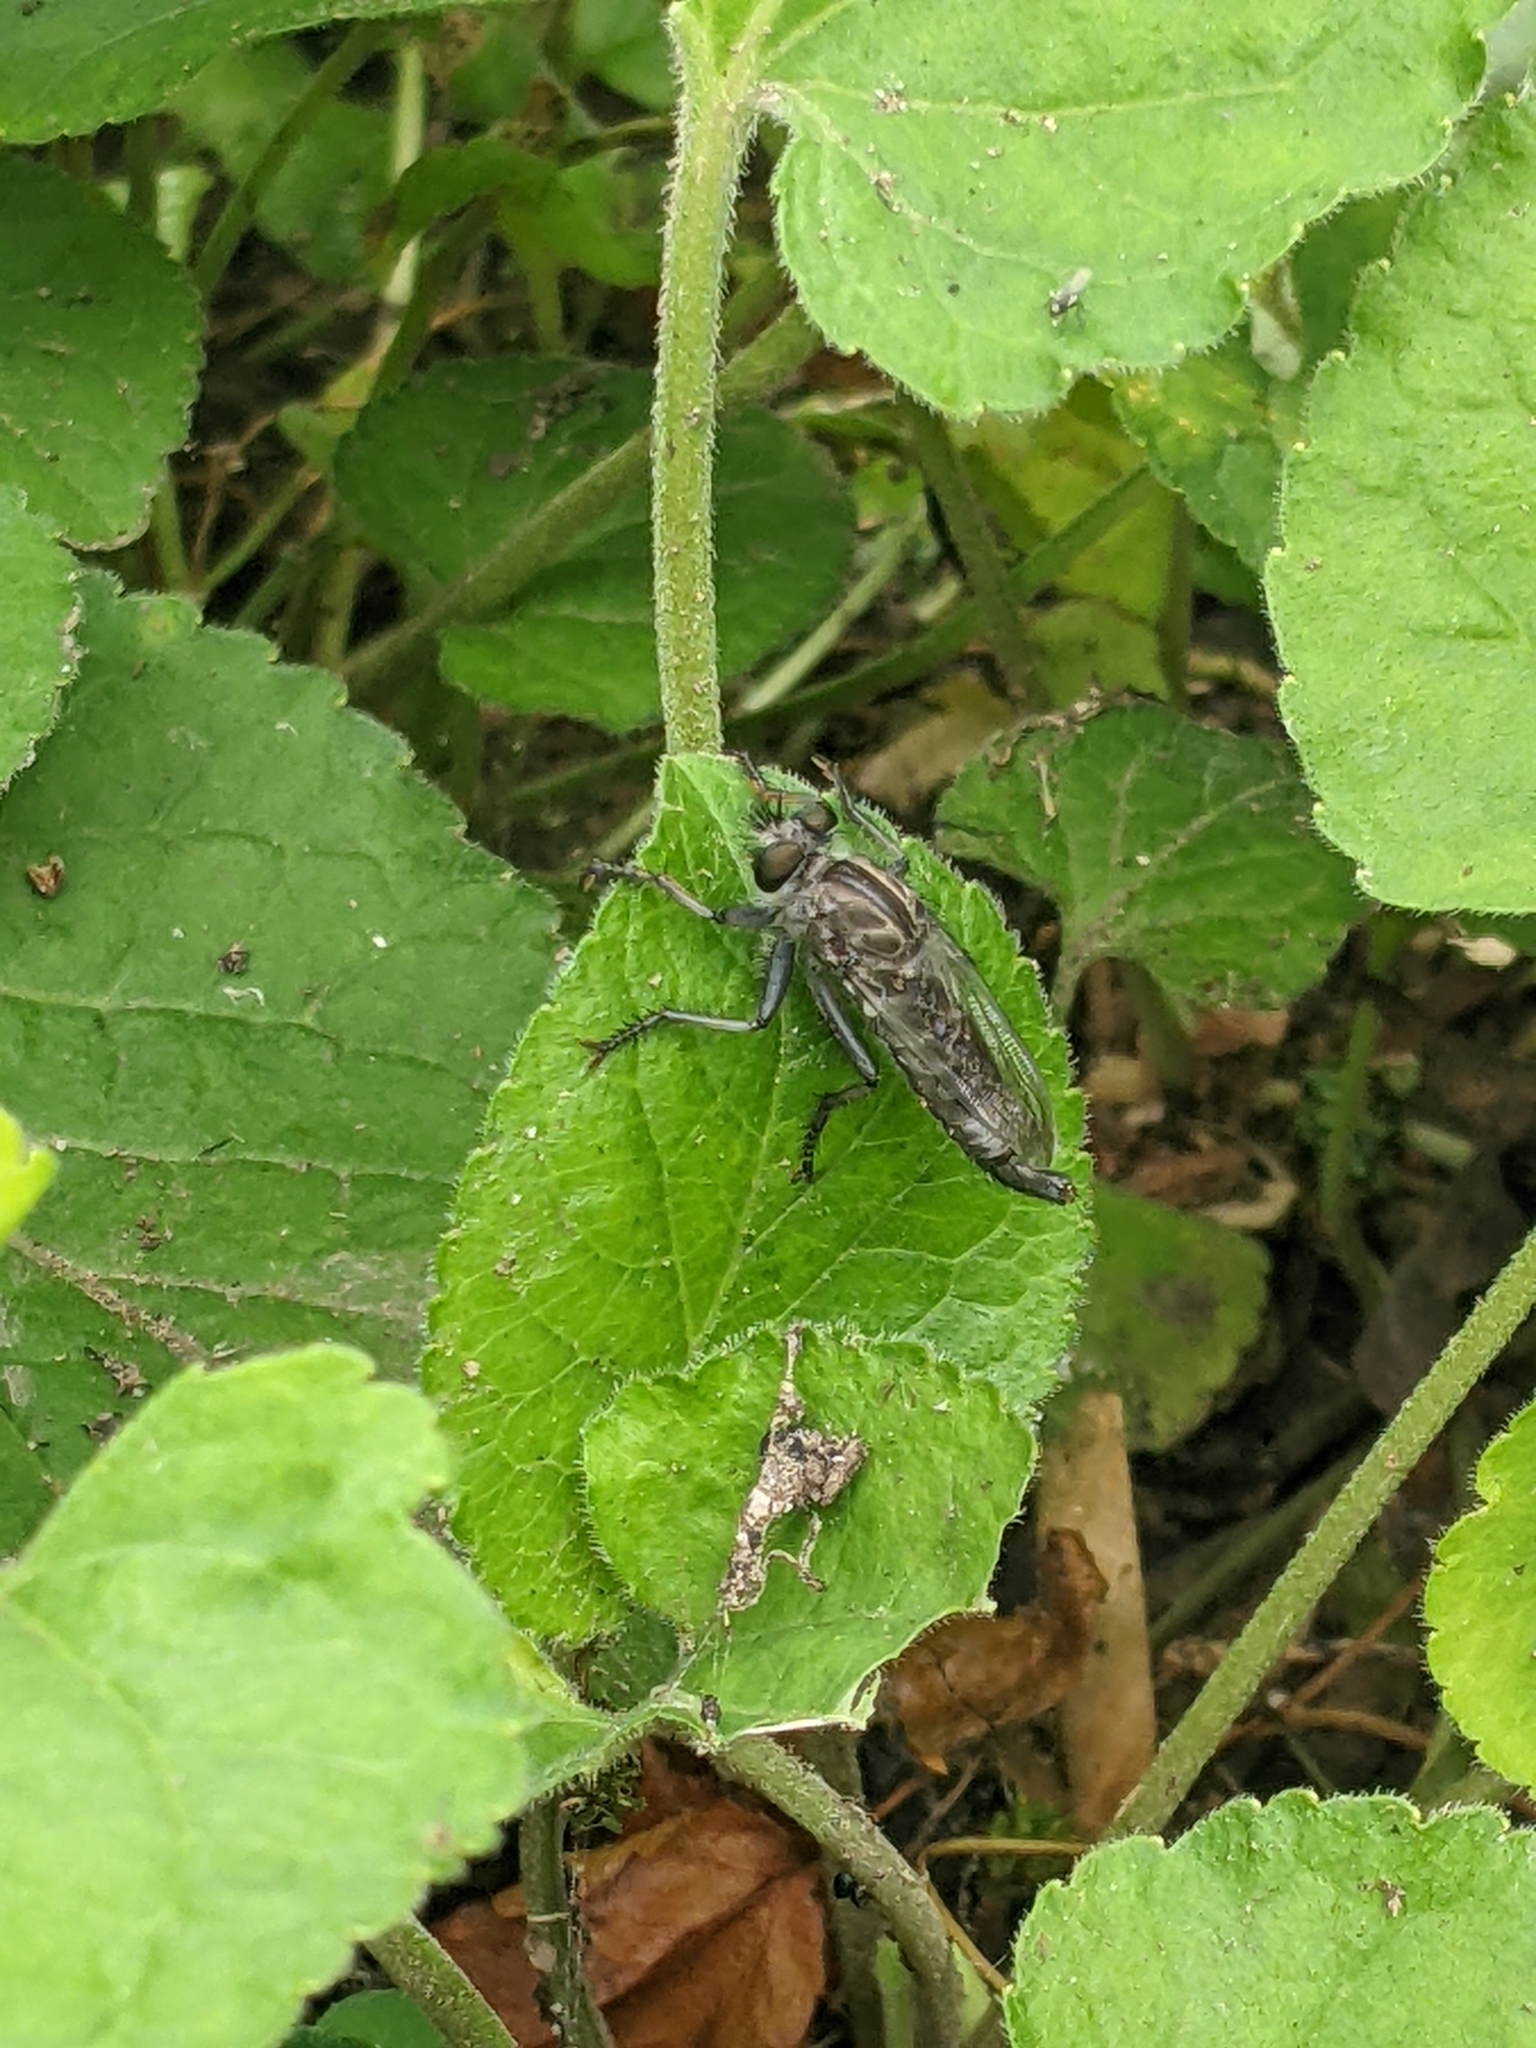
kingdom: Animalia
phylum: Arthropoda
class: Insecta
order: Diptera
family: Asilidae
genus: Efferia
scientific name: Efferia aestuans
